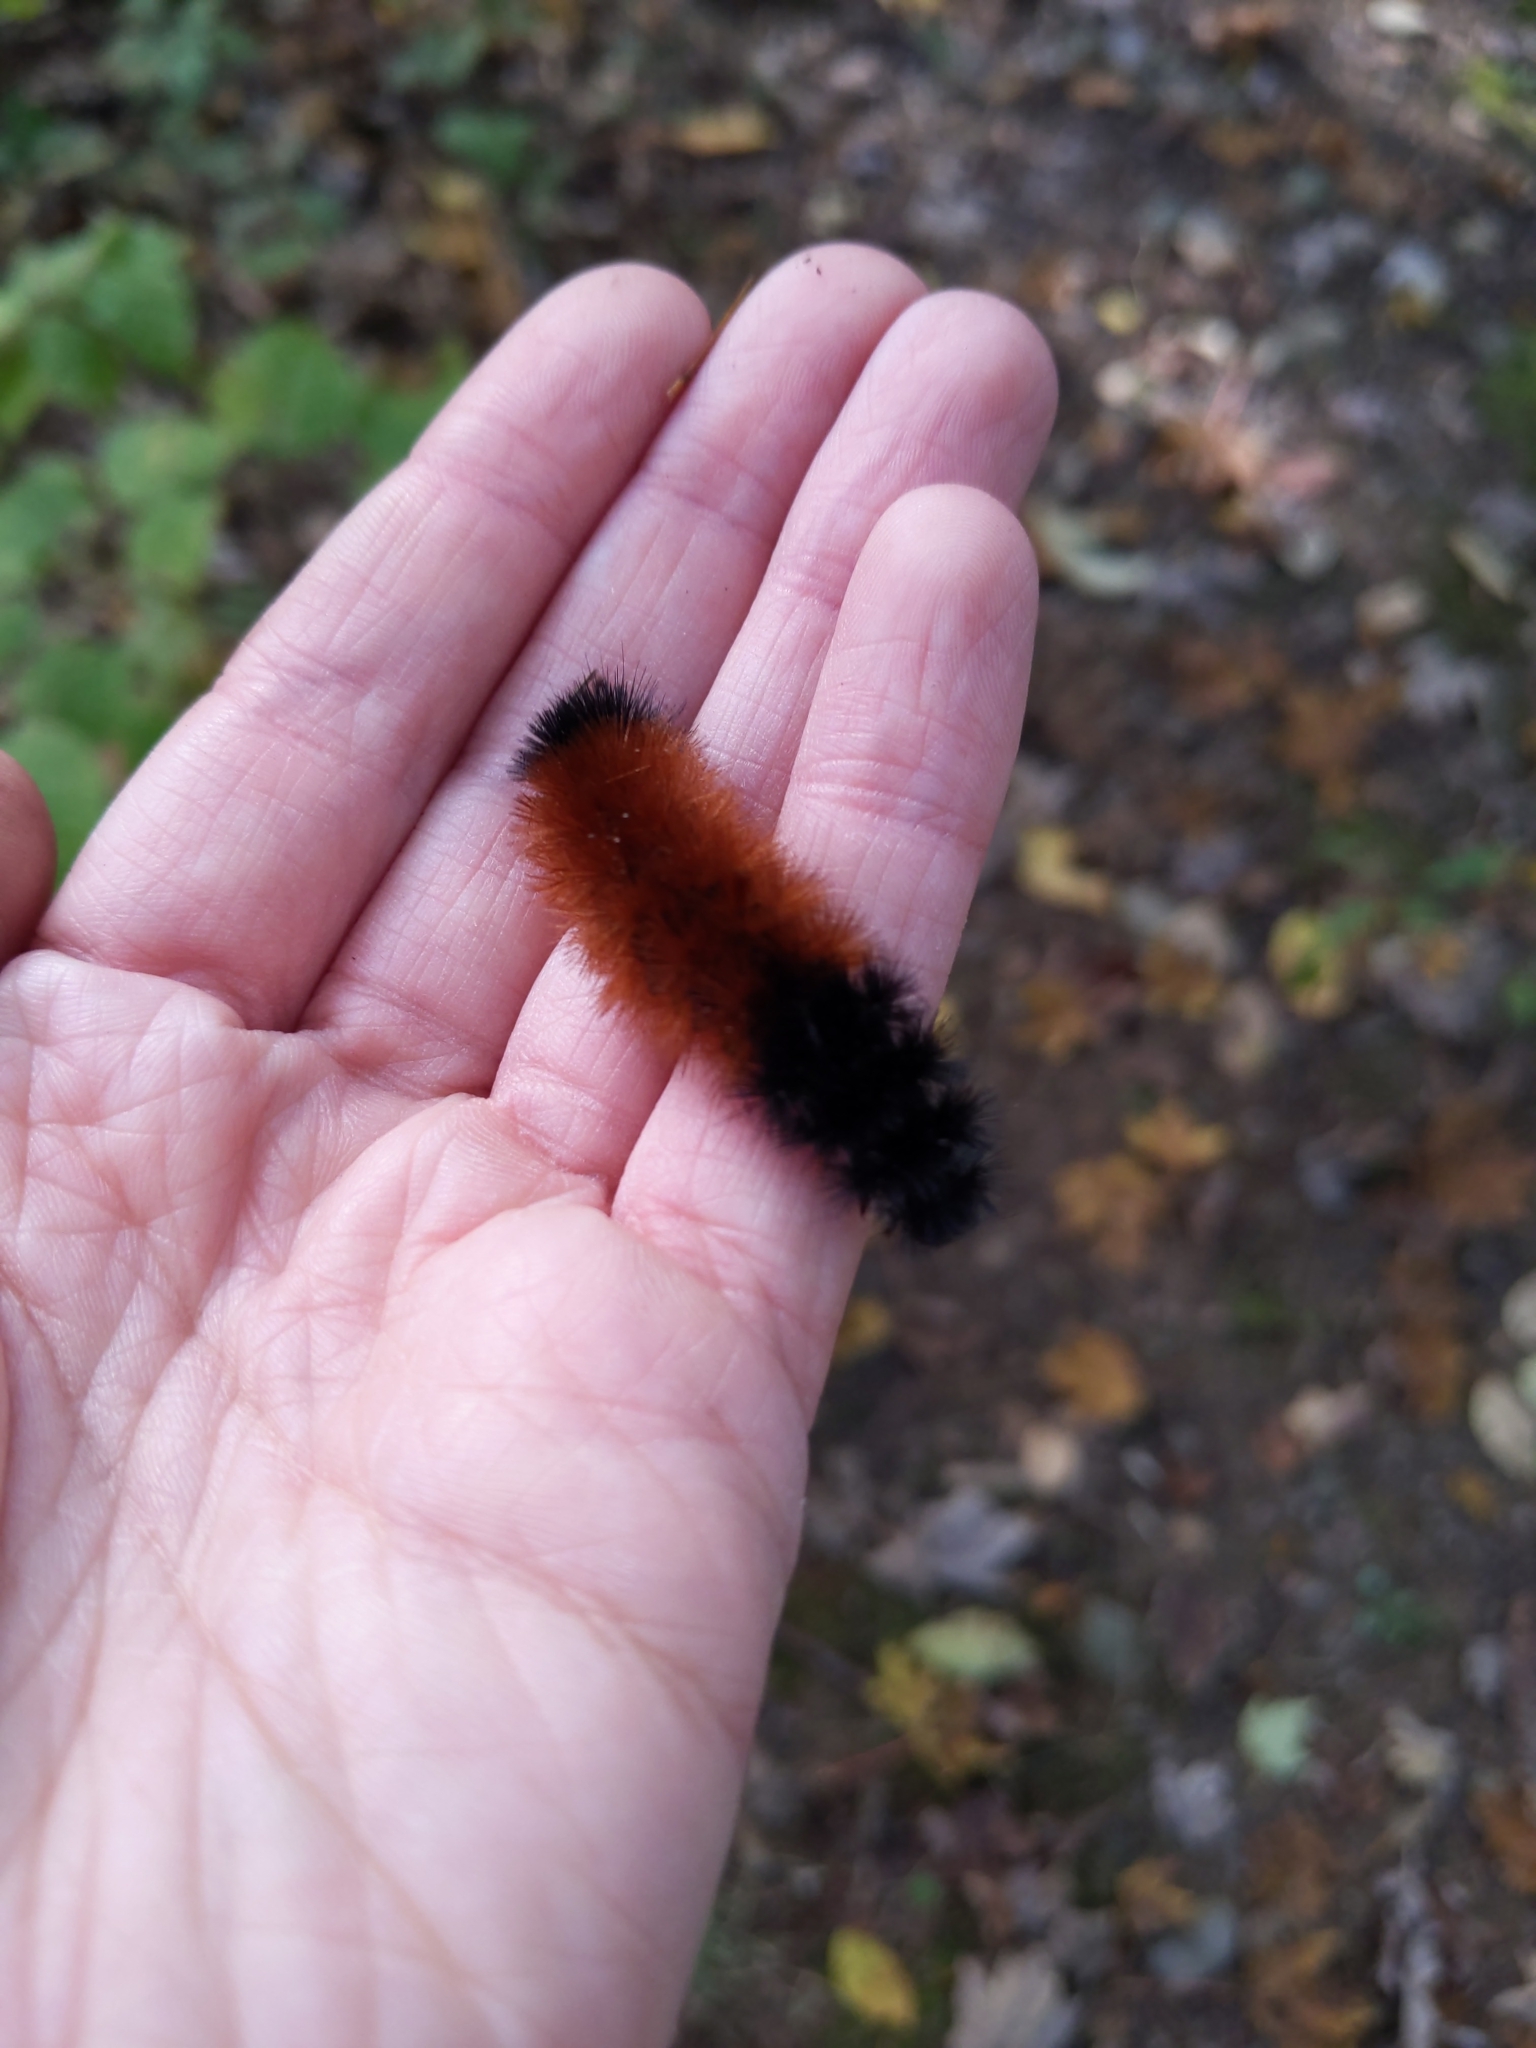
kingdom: Animalia
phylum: Arthropoda
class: Insecta
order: Lepidoptera
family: Erebidae
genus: Pyrrharctia
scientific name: Pyrrharctia isabella
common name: Isabella tiger moth
